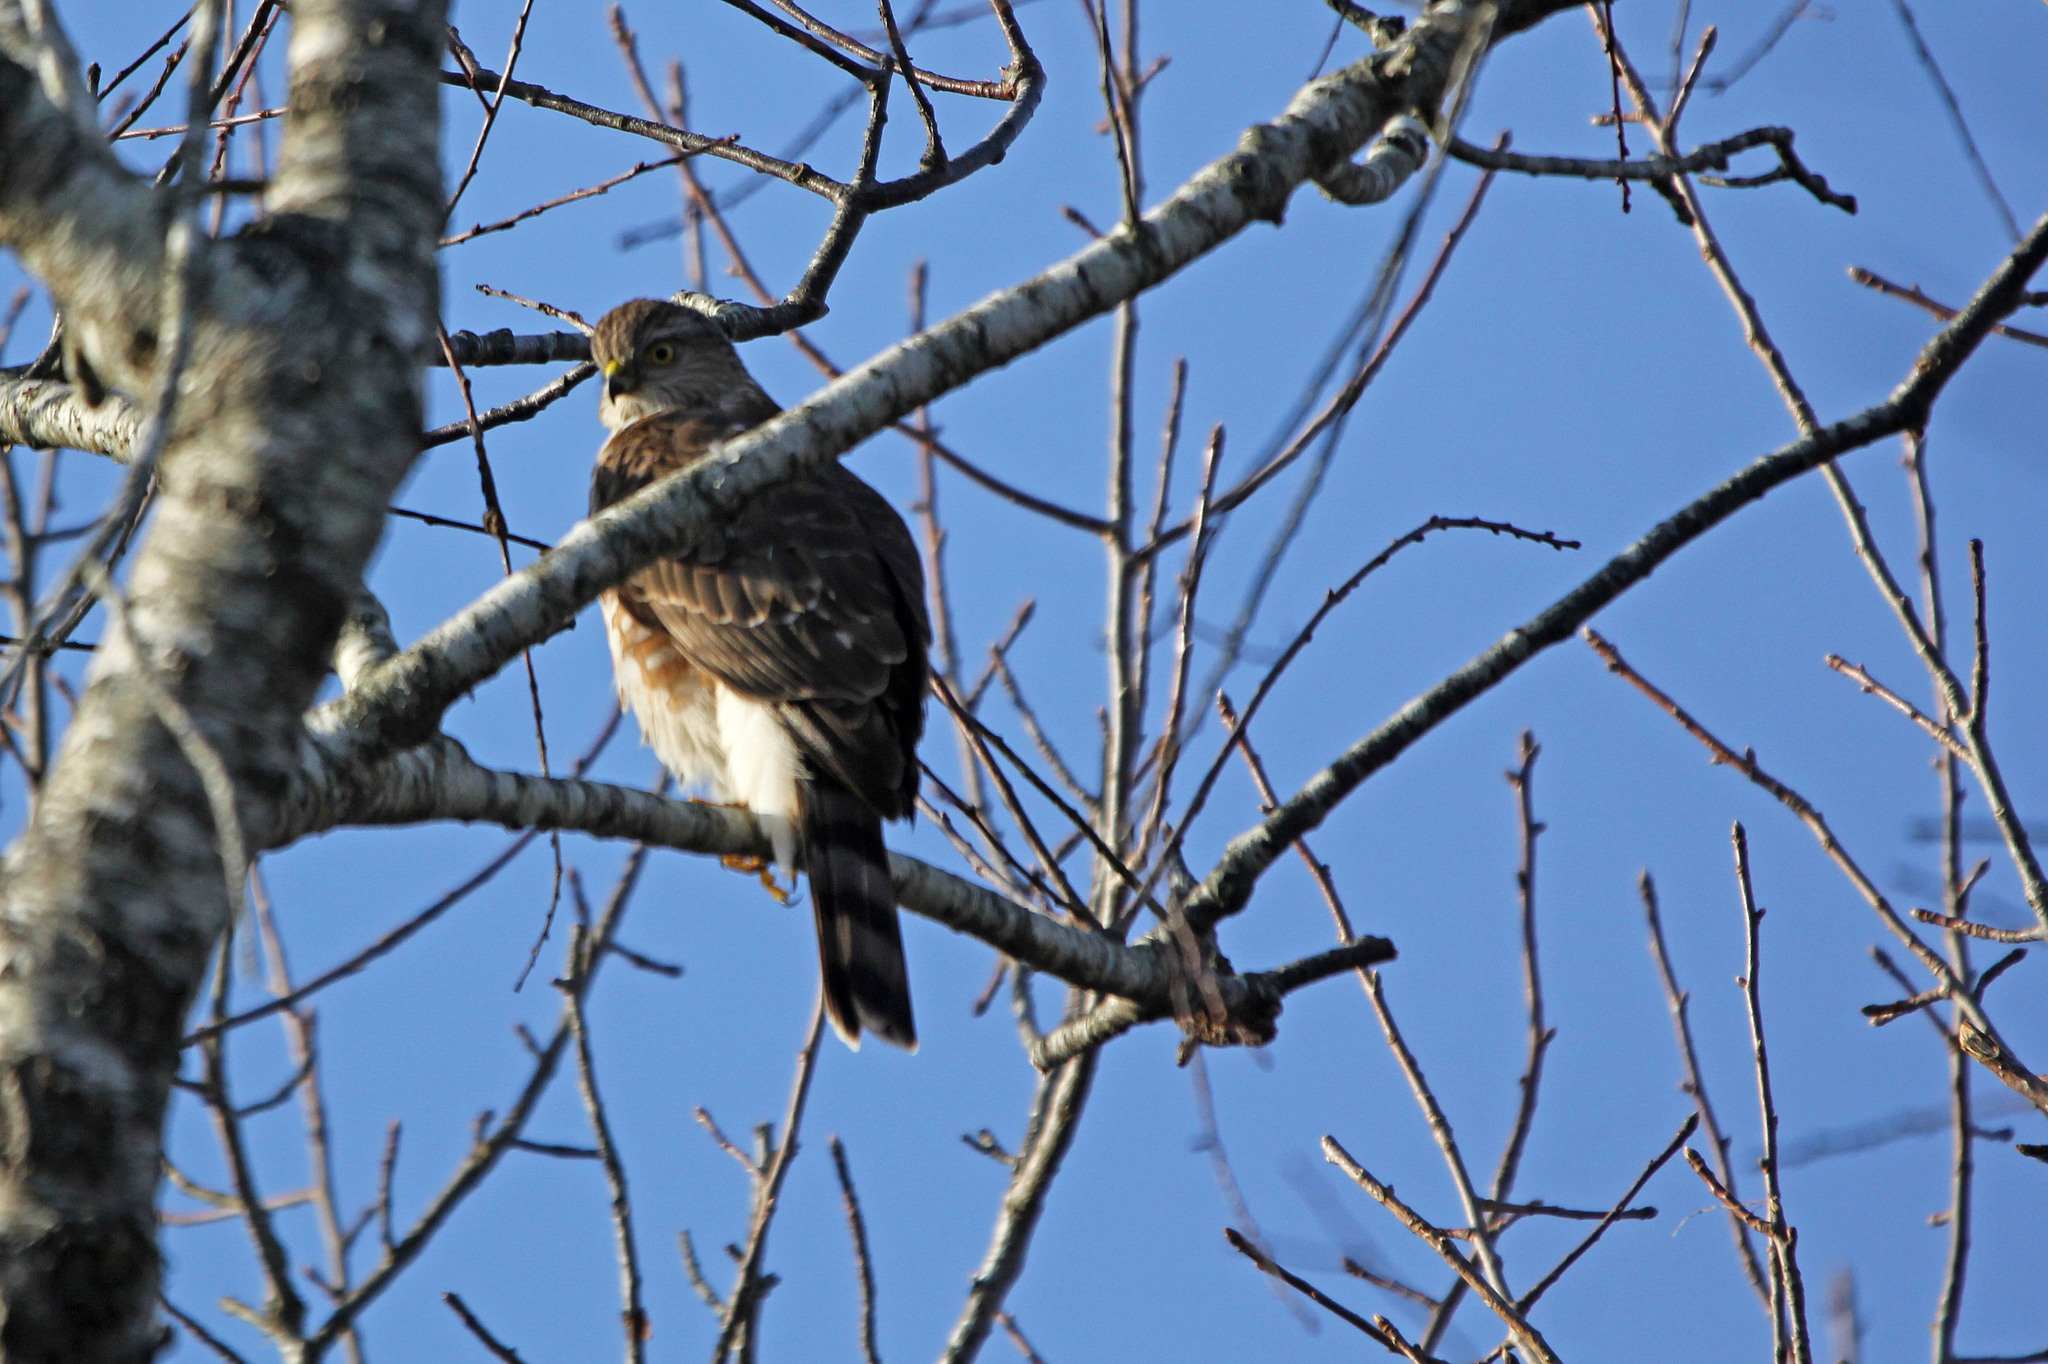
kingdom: Animalia
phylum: Chordata
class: Aves
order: Accipitriformes
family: Accipitridae
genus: Accipiter
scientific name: Accipiter striatus
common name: Sharp-shinned hawk
